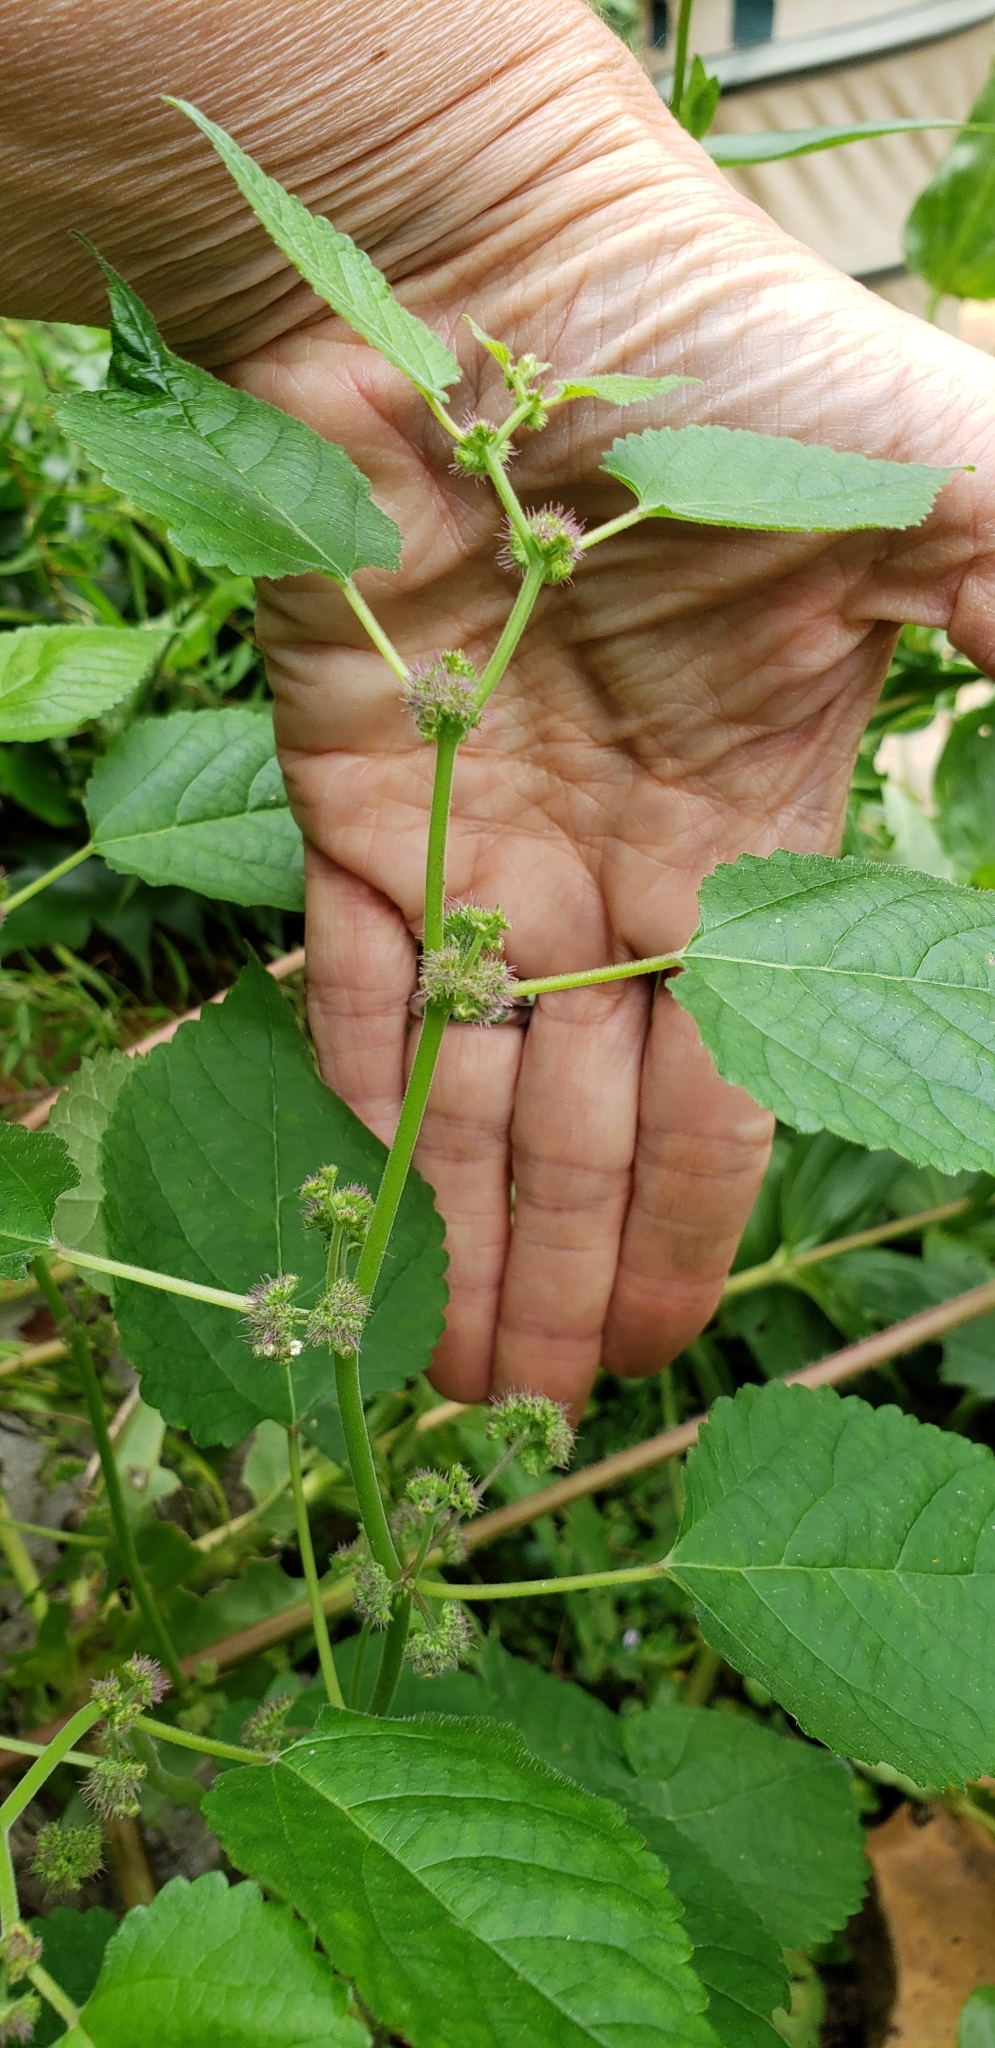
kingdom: Plantae
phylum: Tracheophyta
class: Magnoliopsida
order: Rosales
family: Moraceae
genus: Fatoua
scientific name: Fatoua villosa
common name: Hairy crabweed
